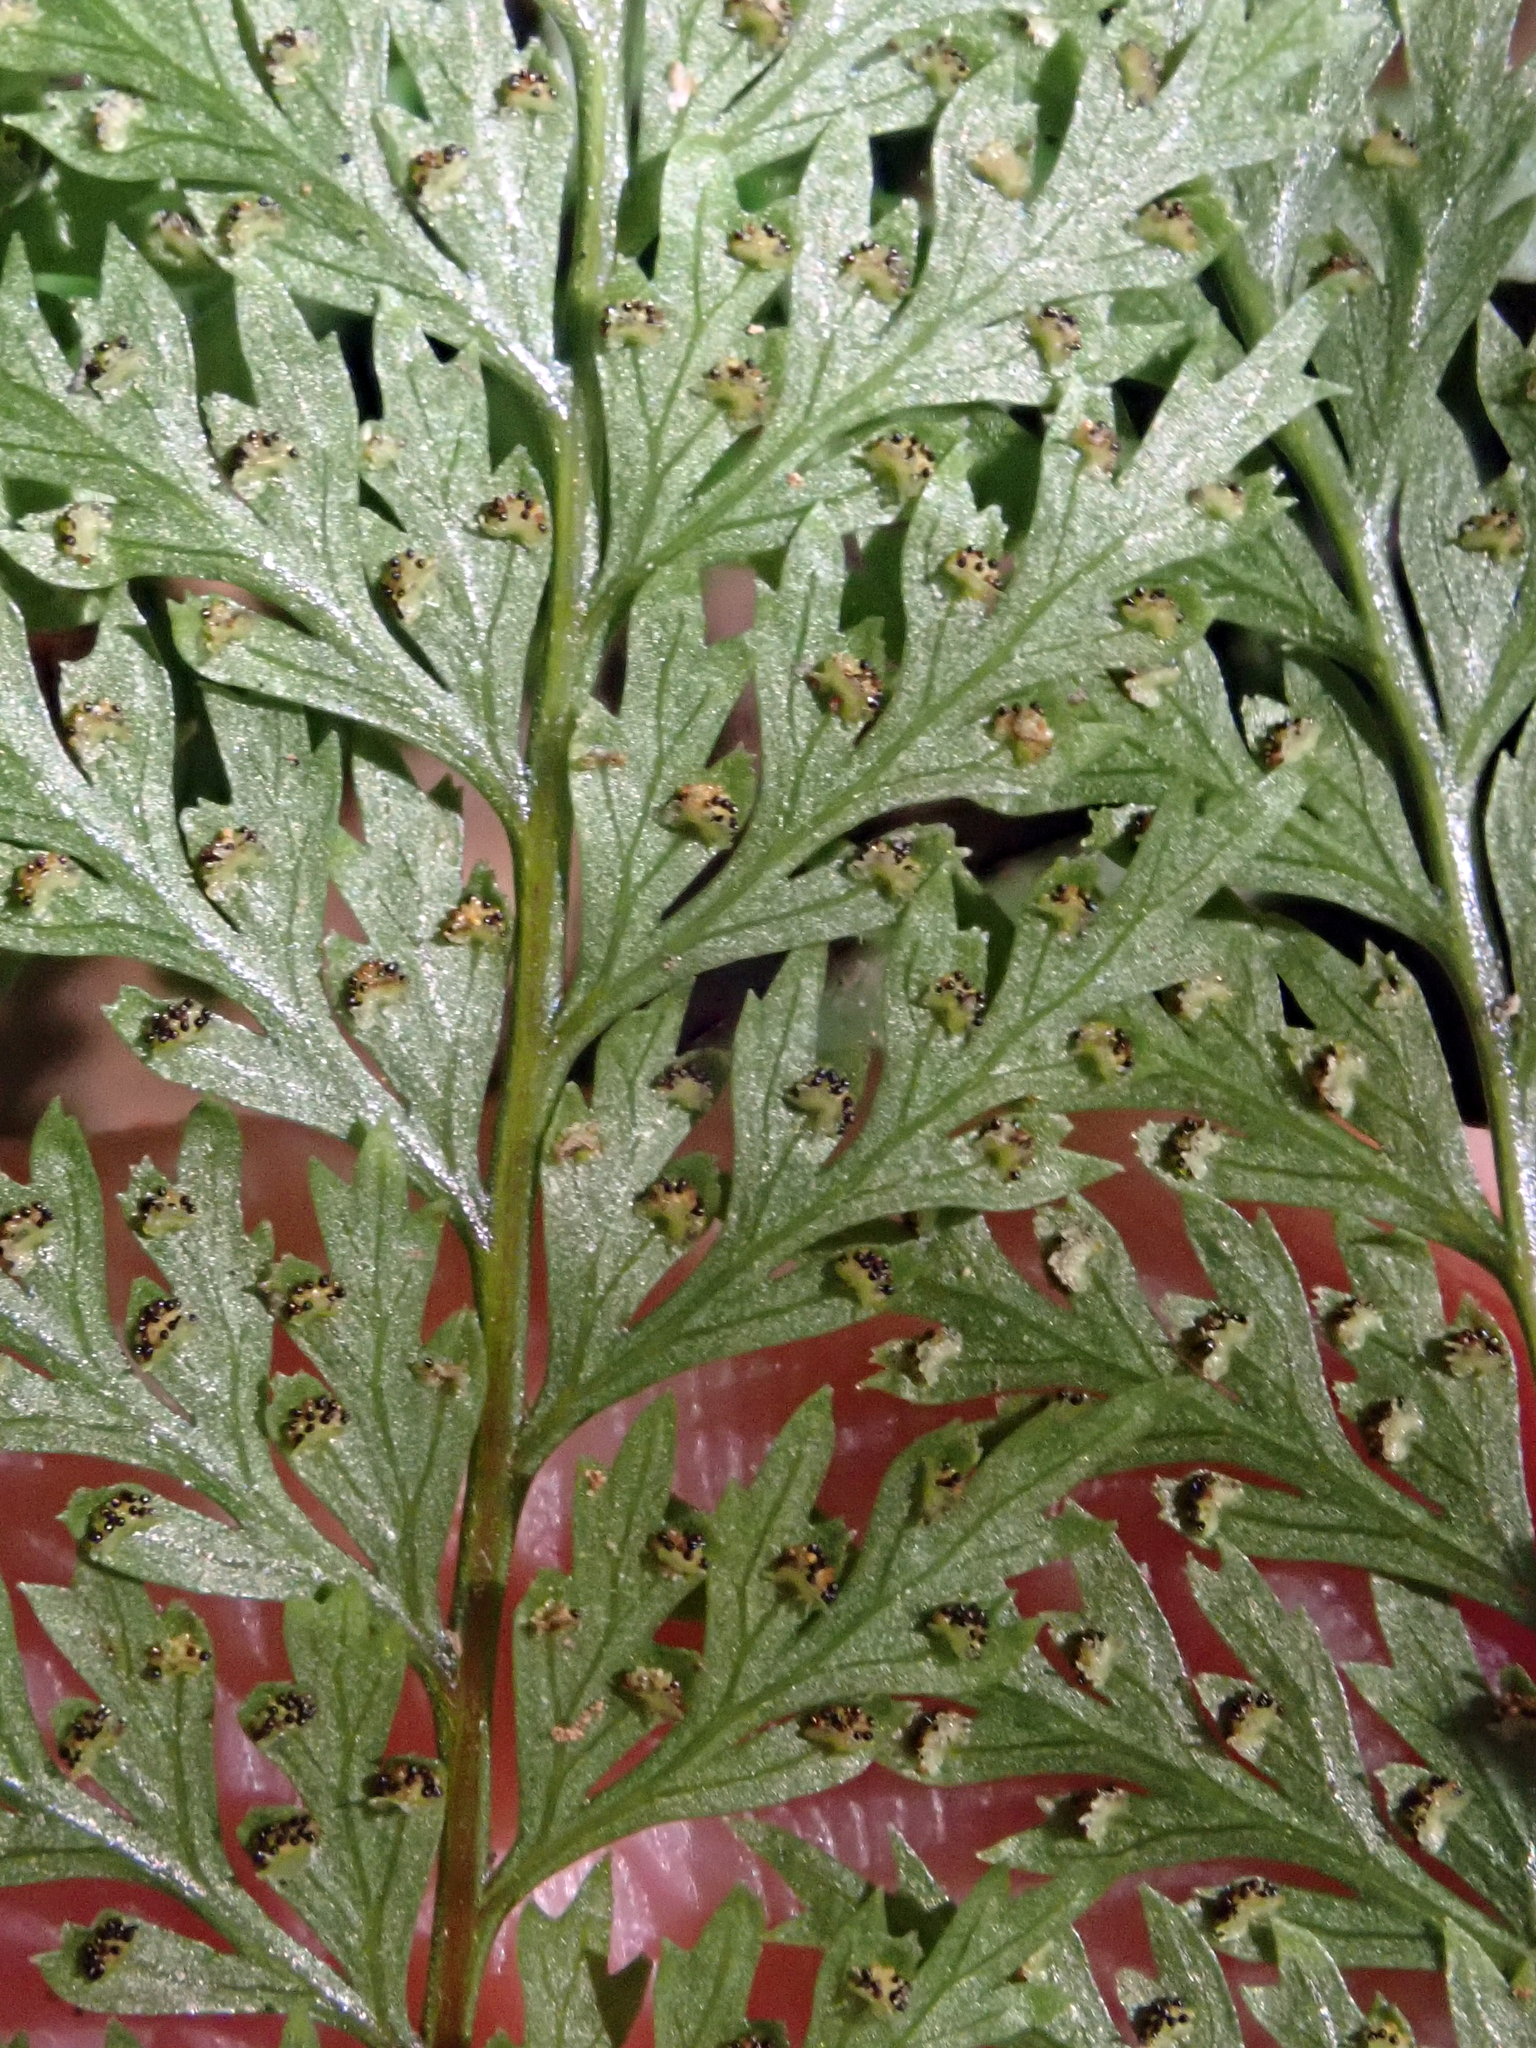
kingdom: Plantae
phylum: Tracheophyta
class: Polypodiopsida
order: Polypodiales
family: Dennstaedtiaceae
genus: Dennstaedtia
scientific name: Dennstaedtia novae-zelandiae
